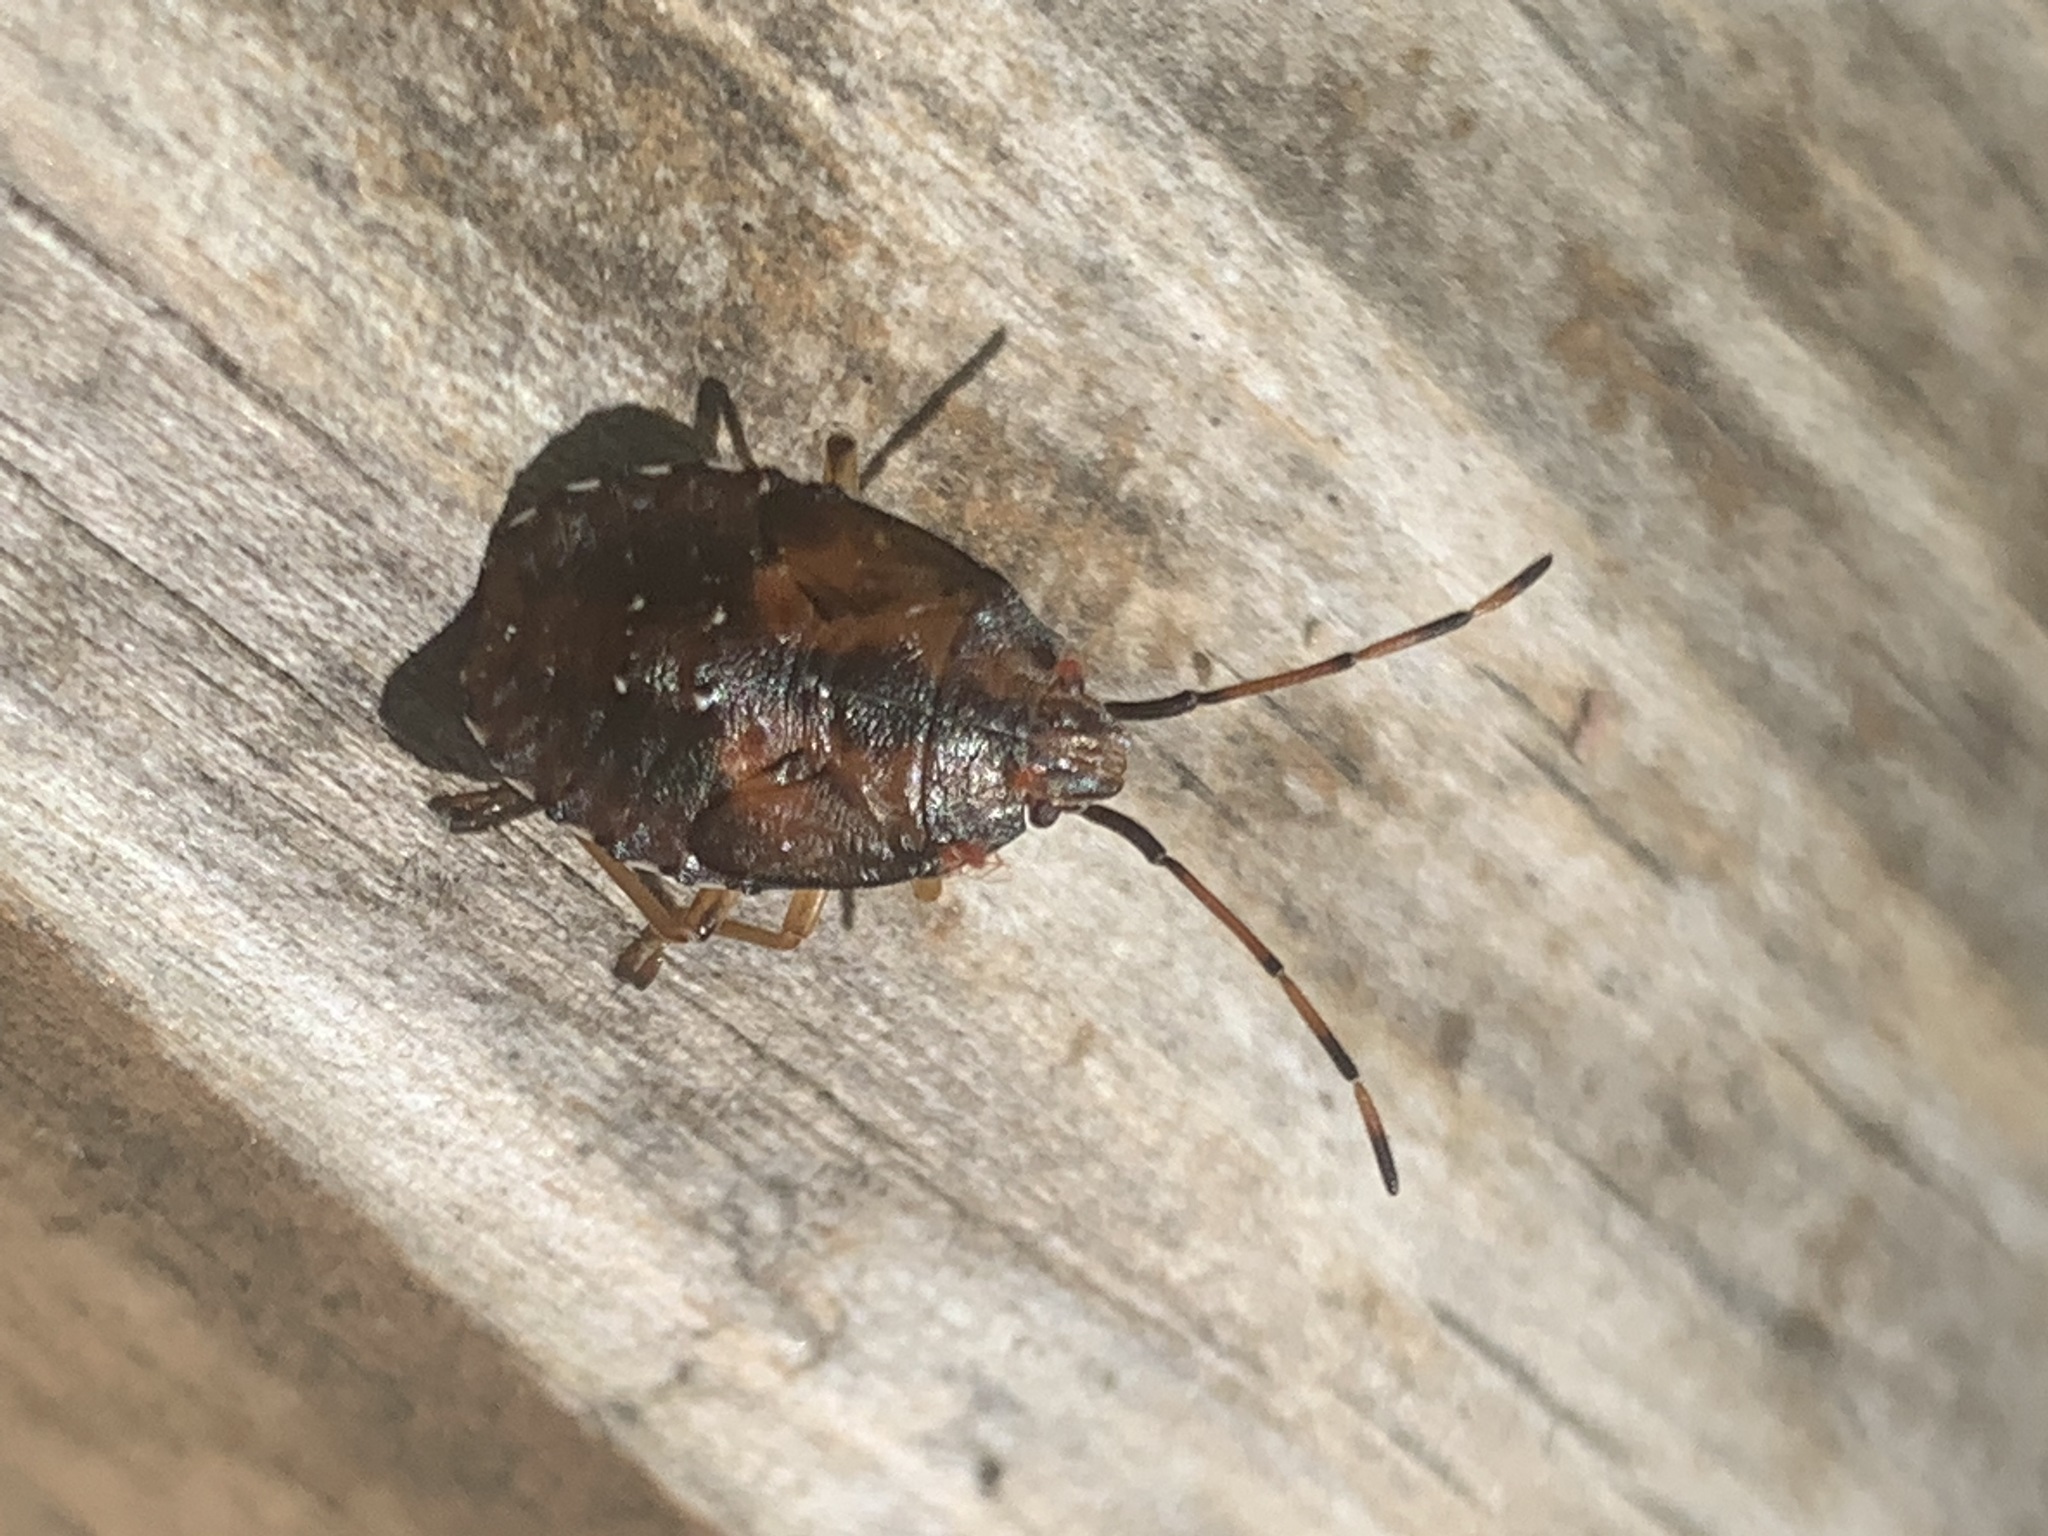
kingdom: Animalia
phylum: Arthropoda
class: Insecta
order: Hemiptera
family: Acanthosomatidae
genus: Planois
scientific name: Planois patagonus
